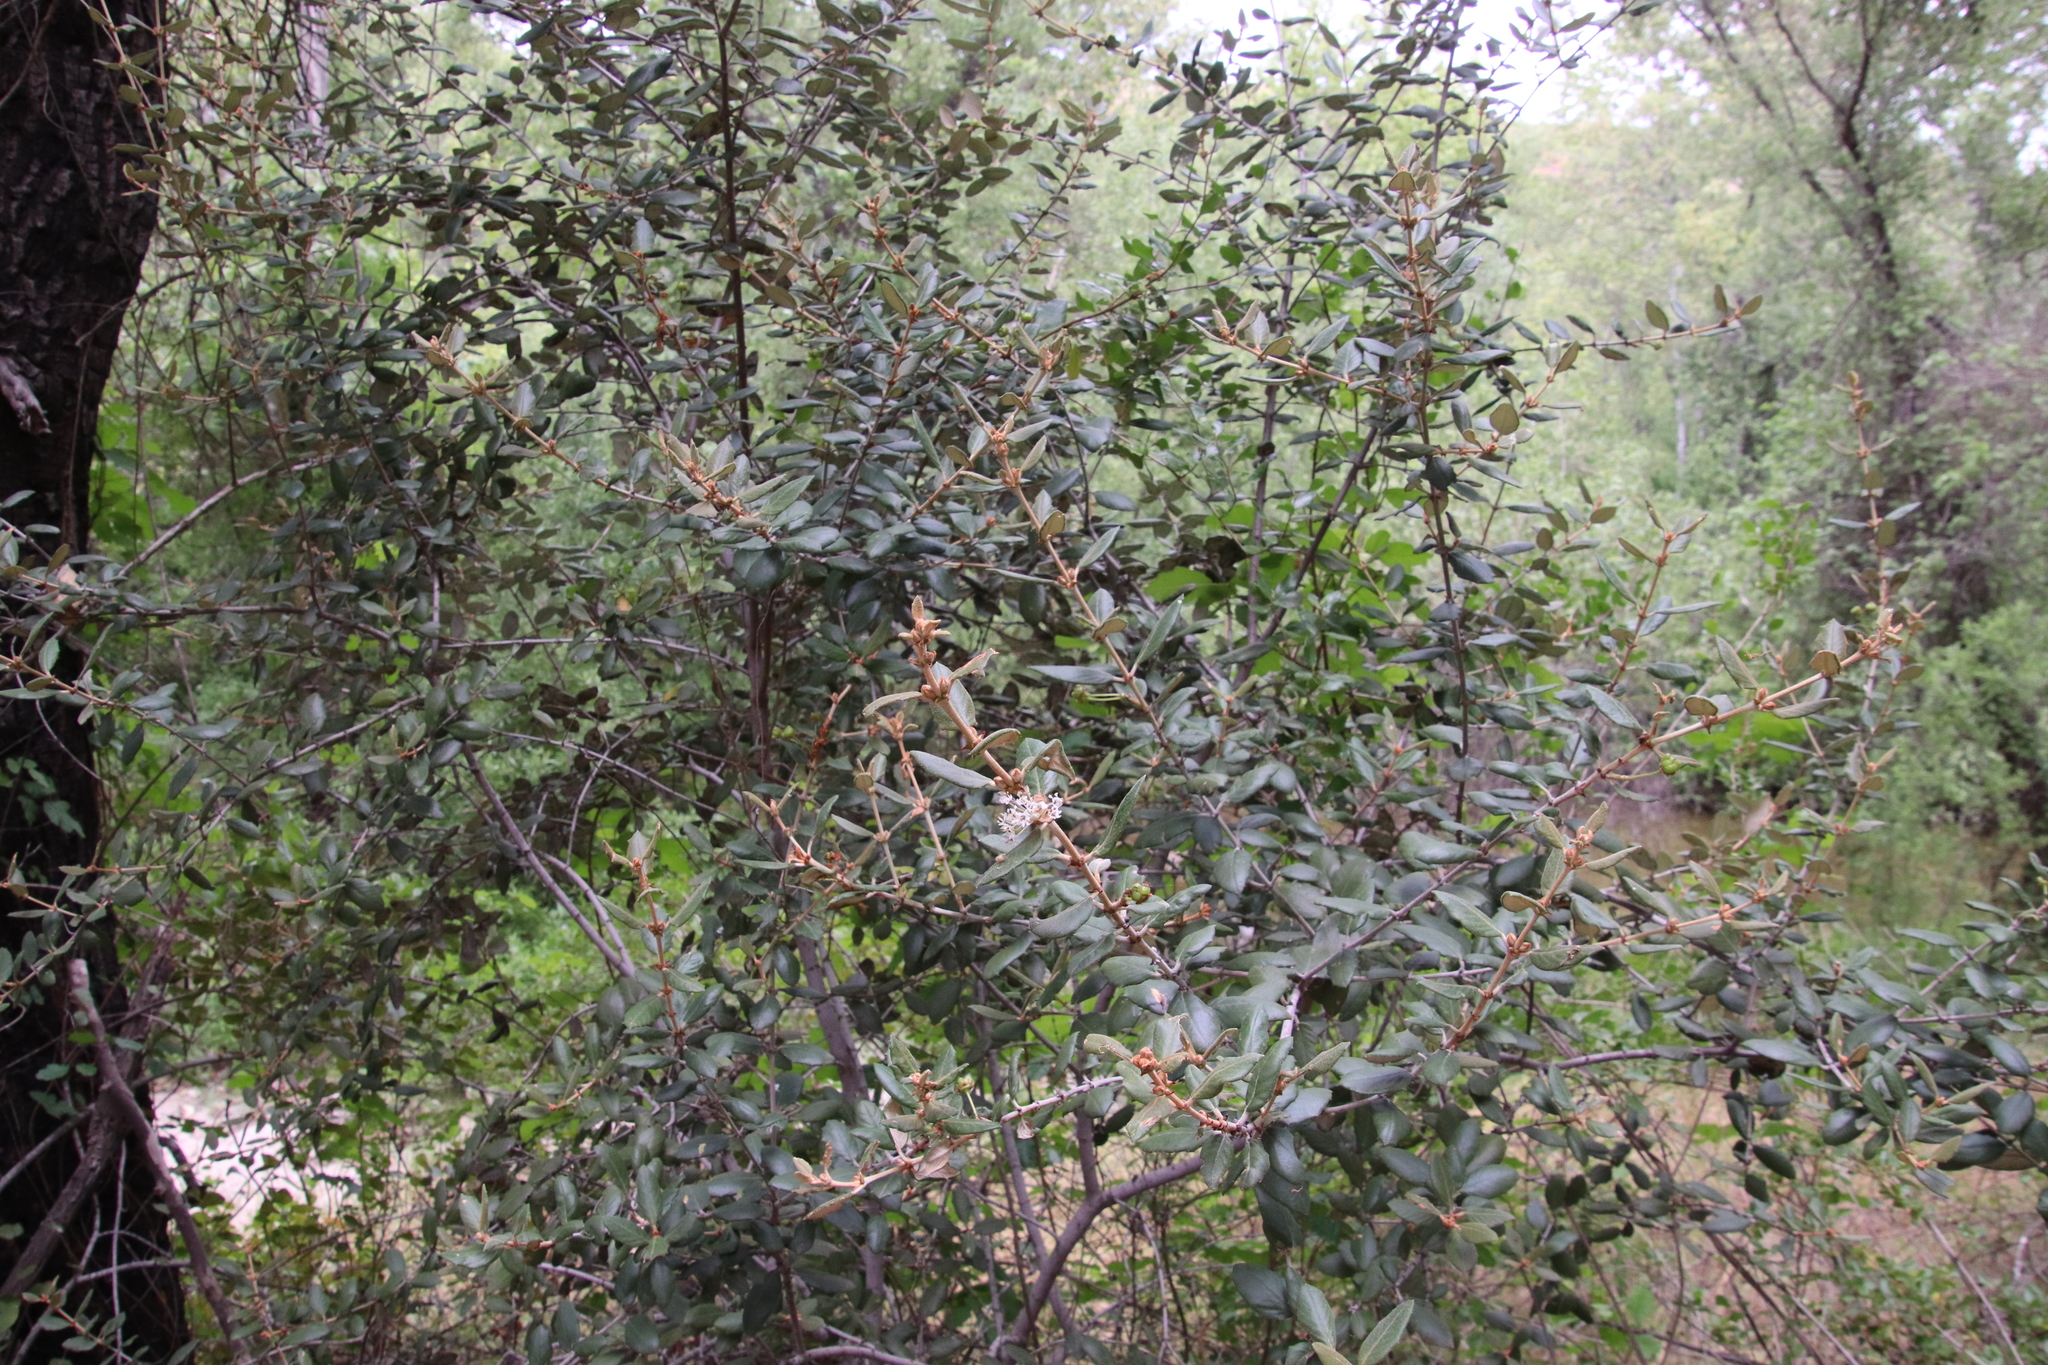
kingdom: Plantae
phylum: Tracheophyta
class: Magnoliopsida
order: Rosales
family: Rhamnaceae
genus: Ceanothus
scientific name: Ceanothus crassifolius
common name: Hoaryleaf ceanothus
